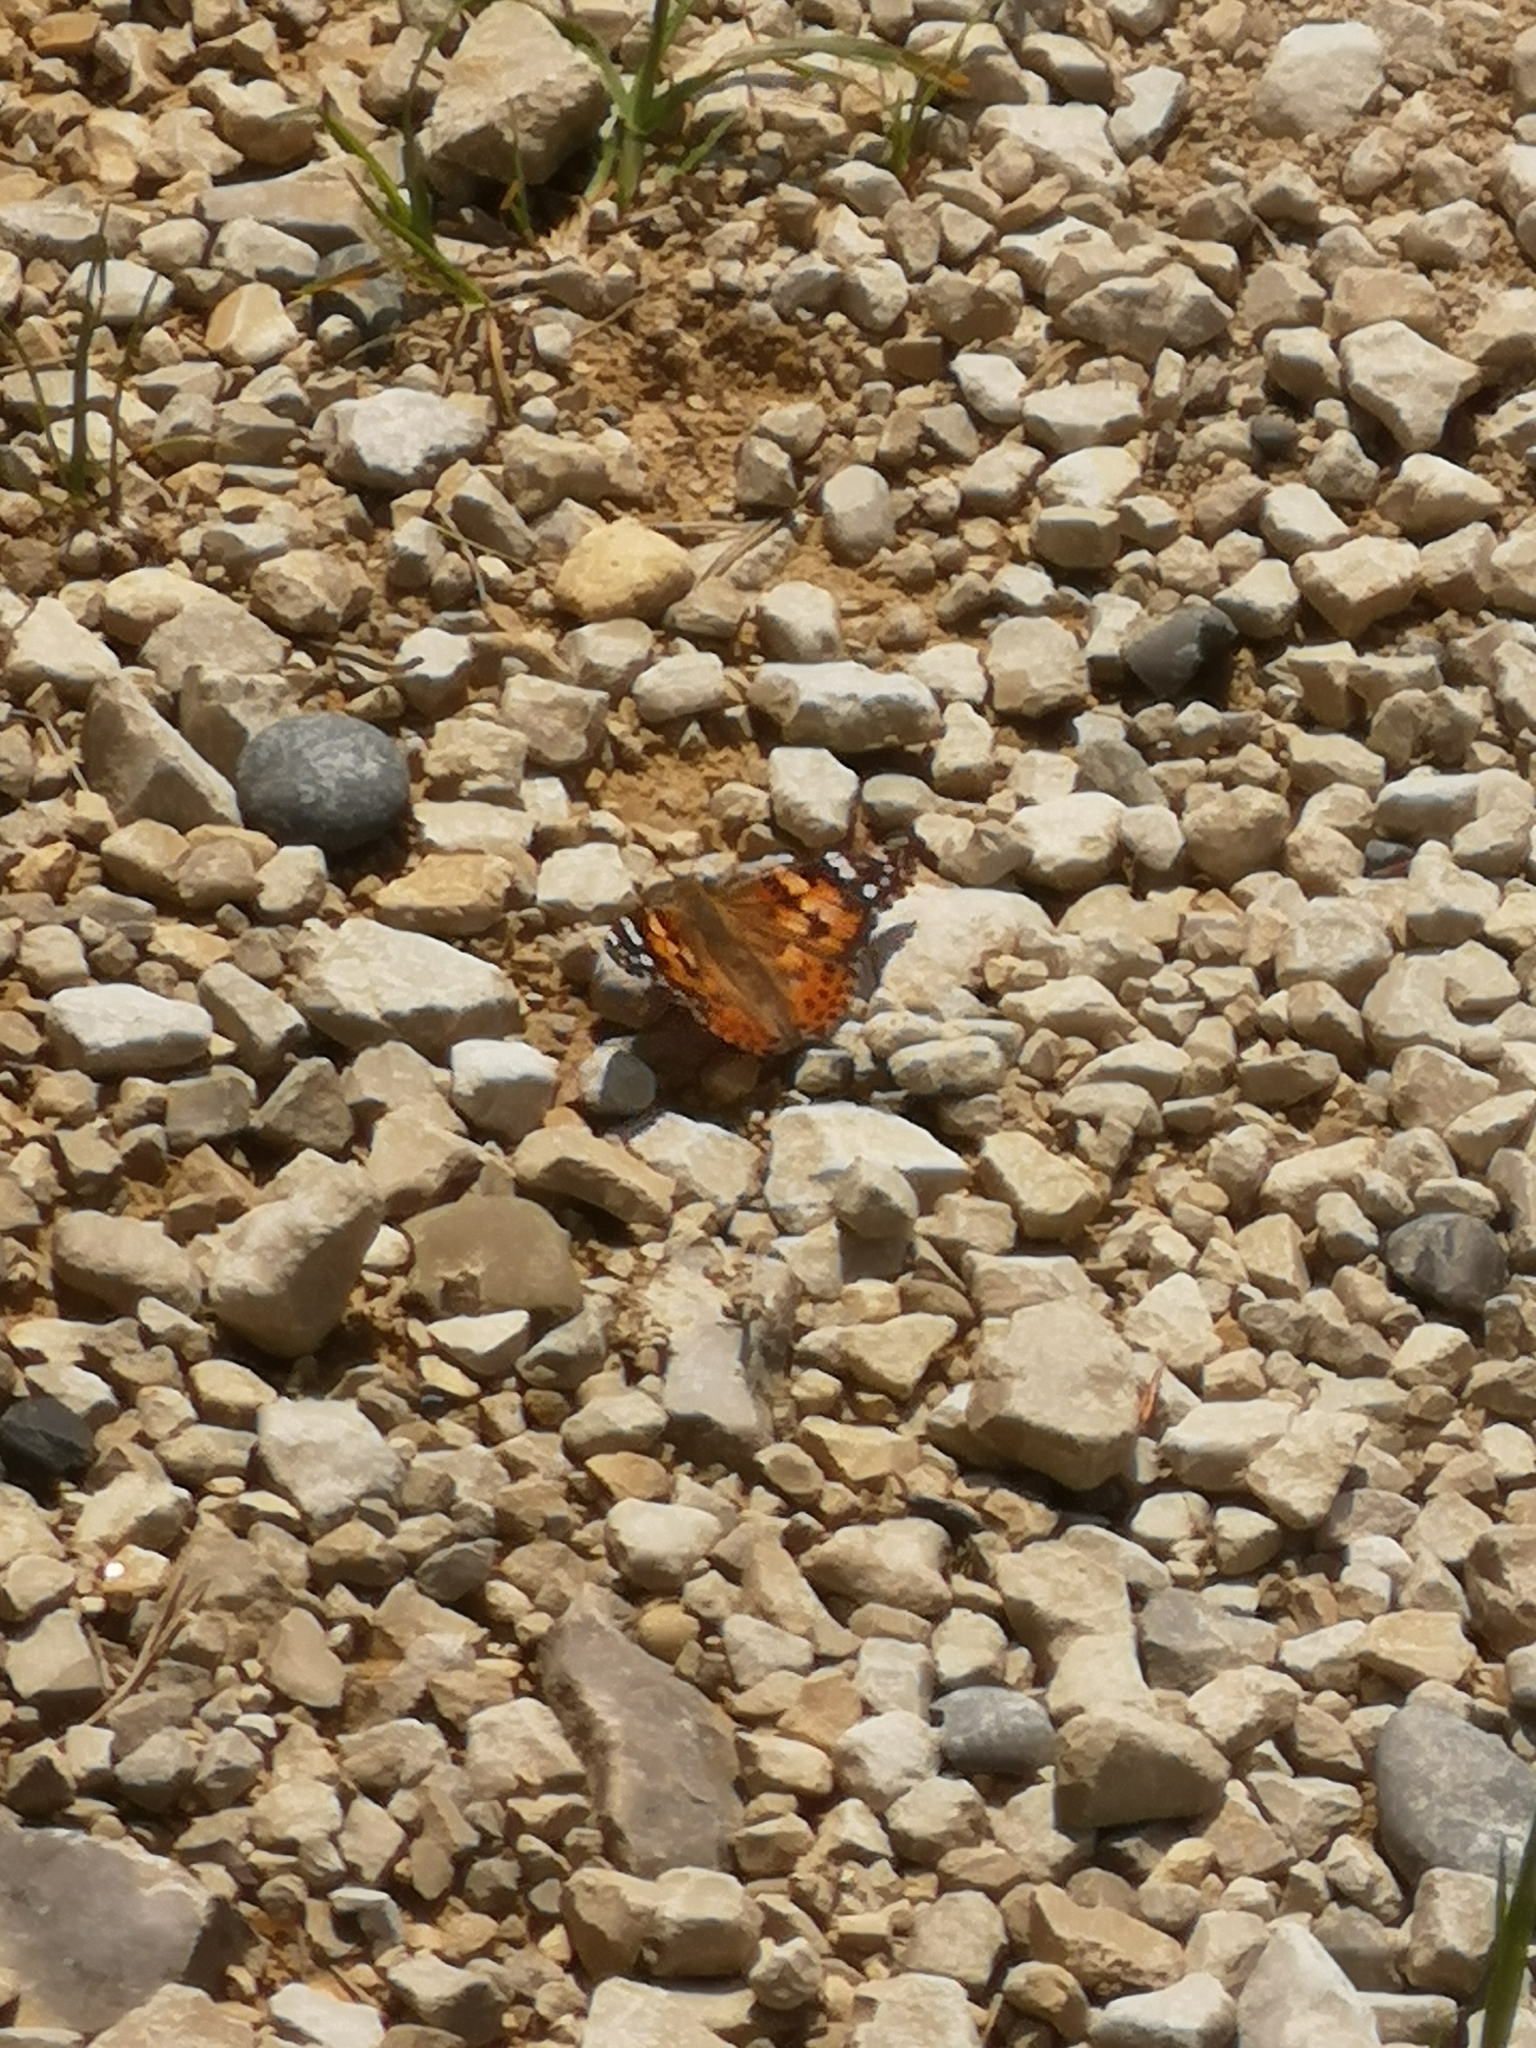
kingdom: Animalia
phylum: Arthropoda
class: Insecta
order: Lepidoptera
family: Nymphalidae
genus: Vanessa
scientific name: Vanessa cardui
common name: Painted lady
